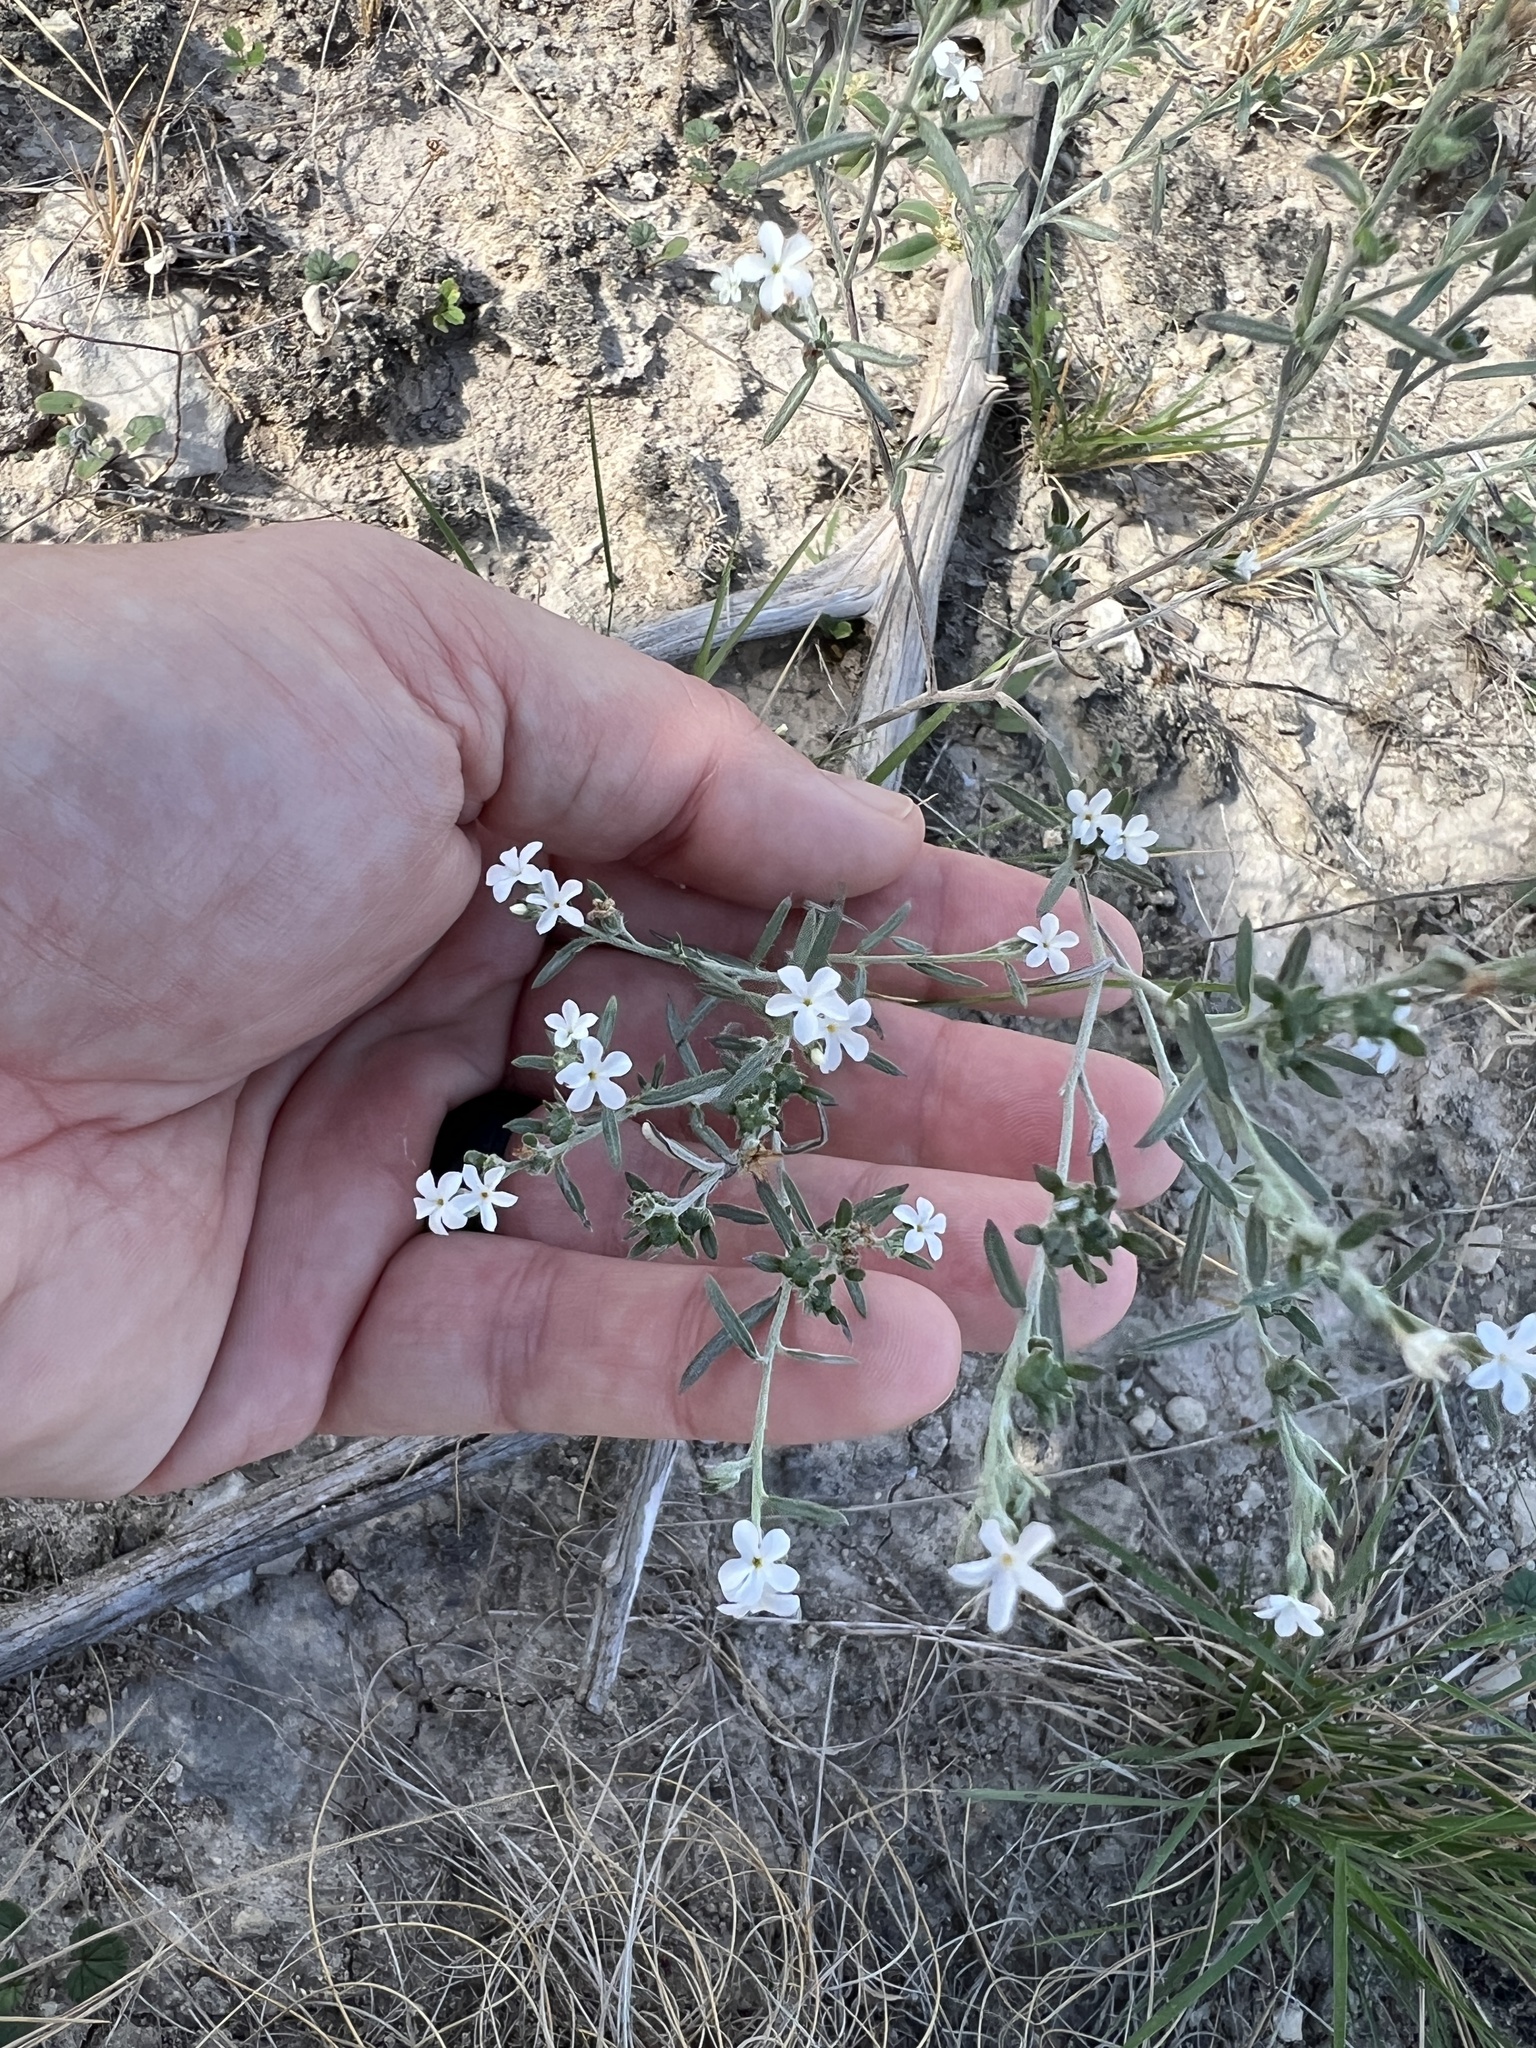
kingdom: Plantae
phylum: Tracheophyta
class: Magnoliopsida
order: Boraginales
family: Heliotropiaceae
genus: Euploca
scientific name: Euploca tenella
